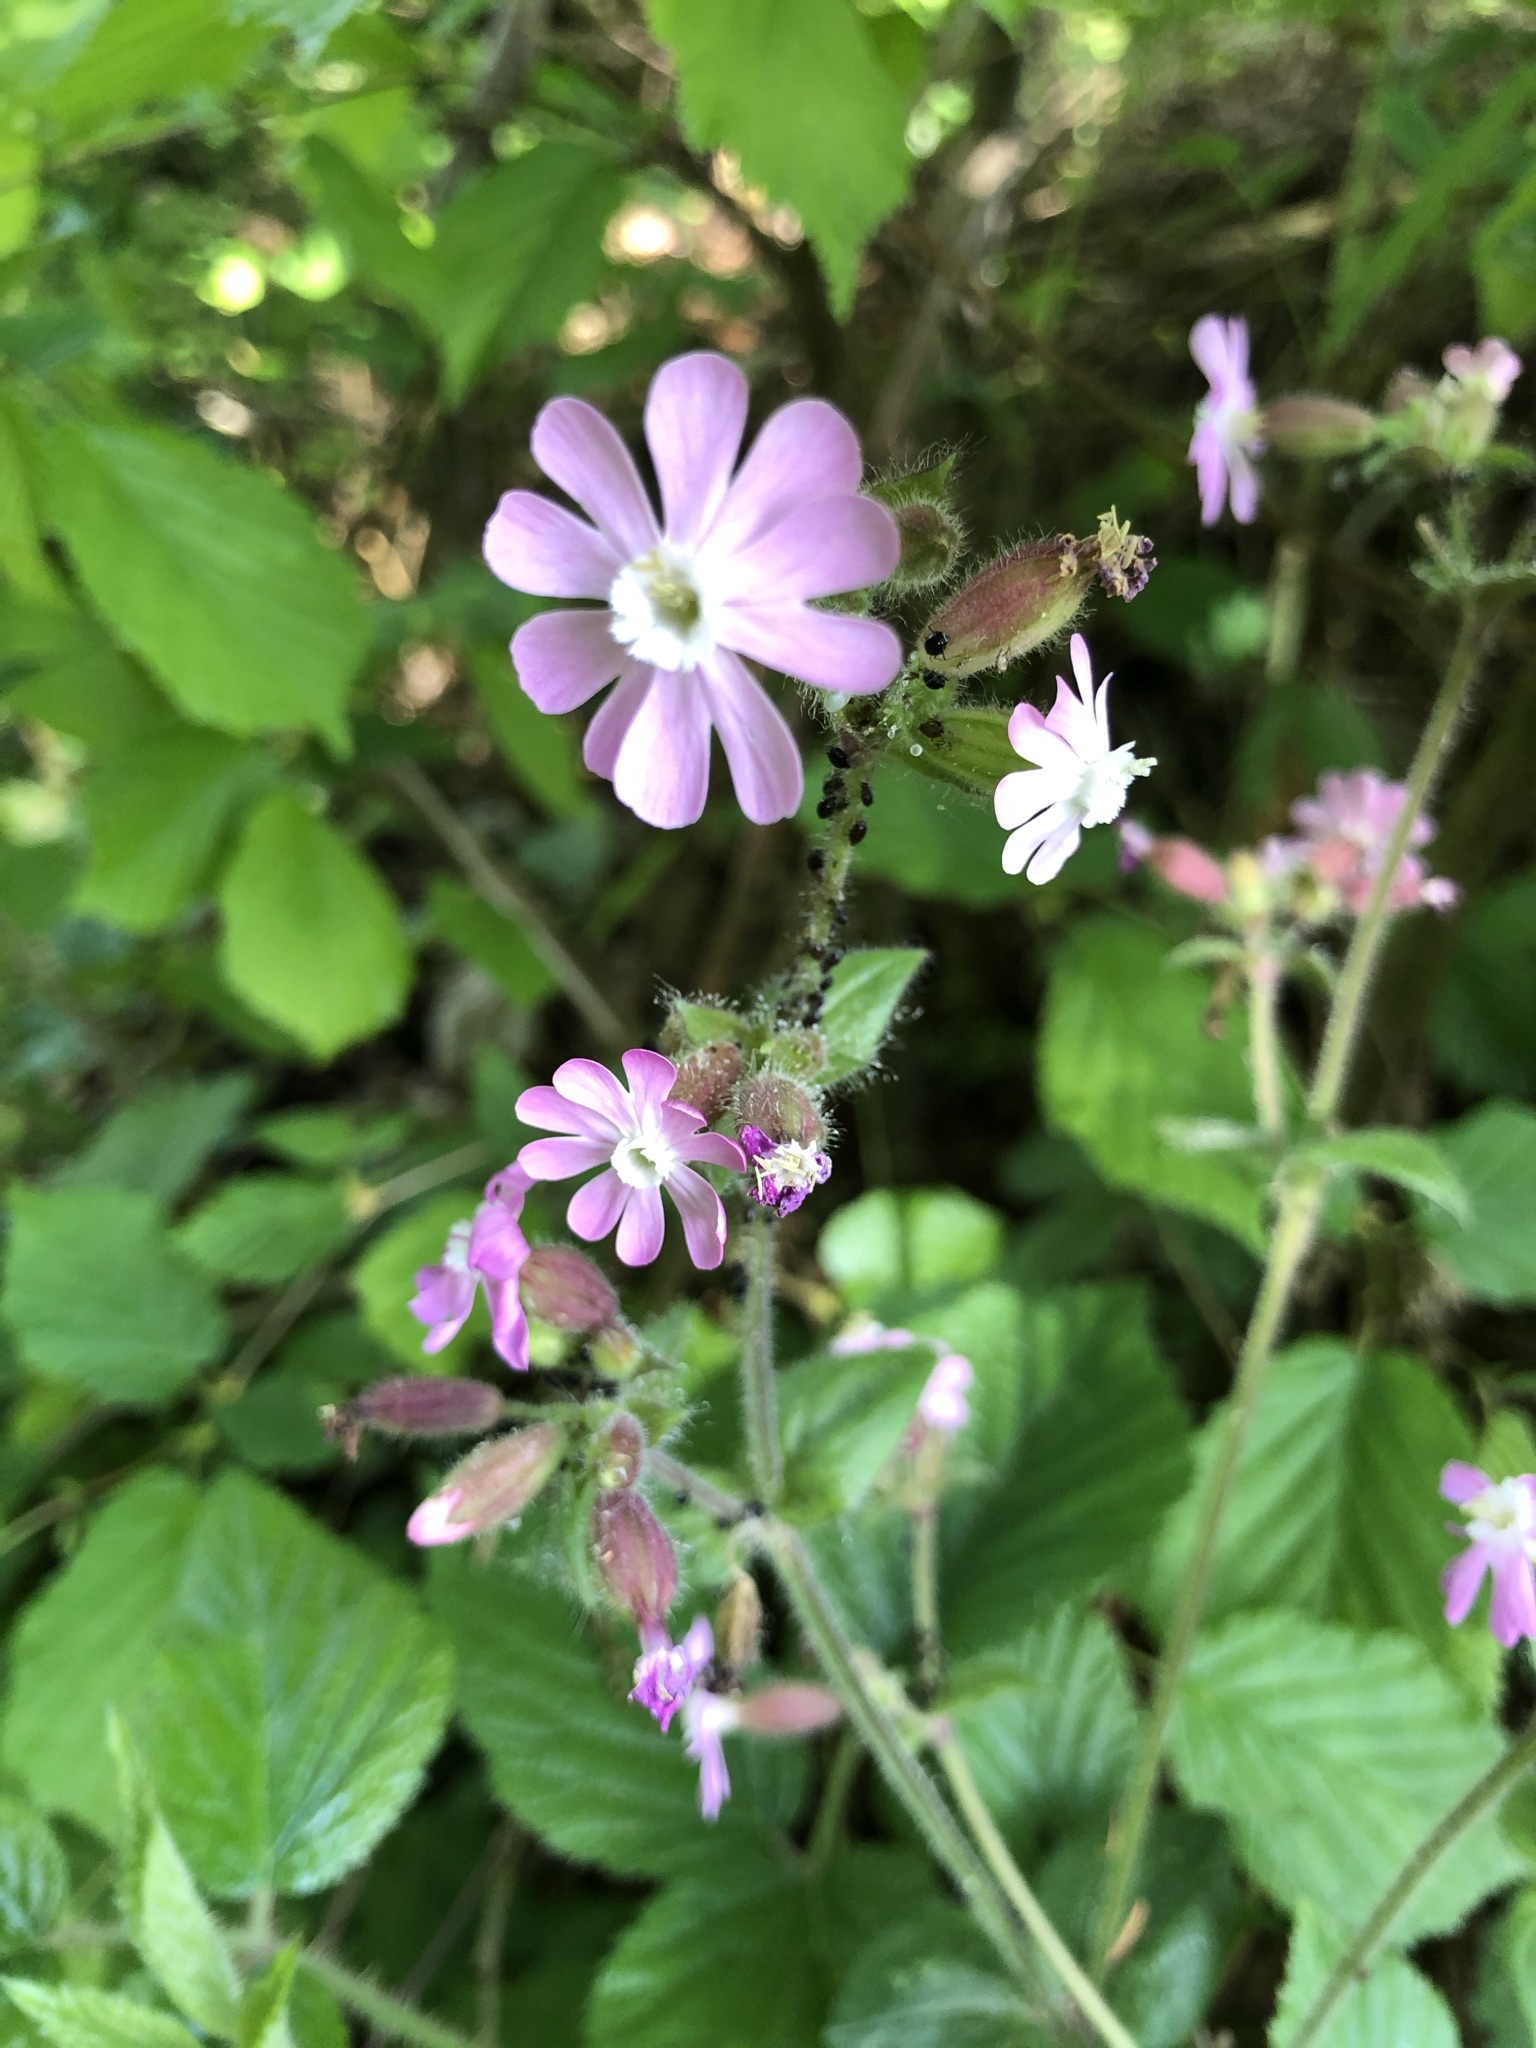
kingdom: Plantae
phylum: Tracheophyta
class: Magnoliopsida
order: Caryophyllales
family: Caryophyllaceae
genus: Silene
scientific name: Silene dioica
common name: Red campion
